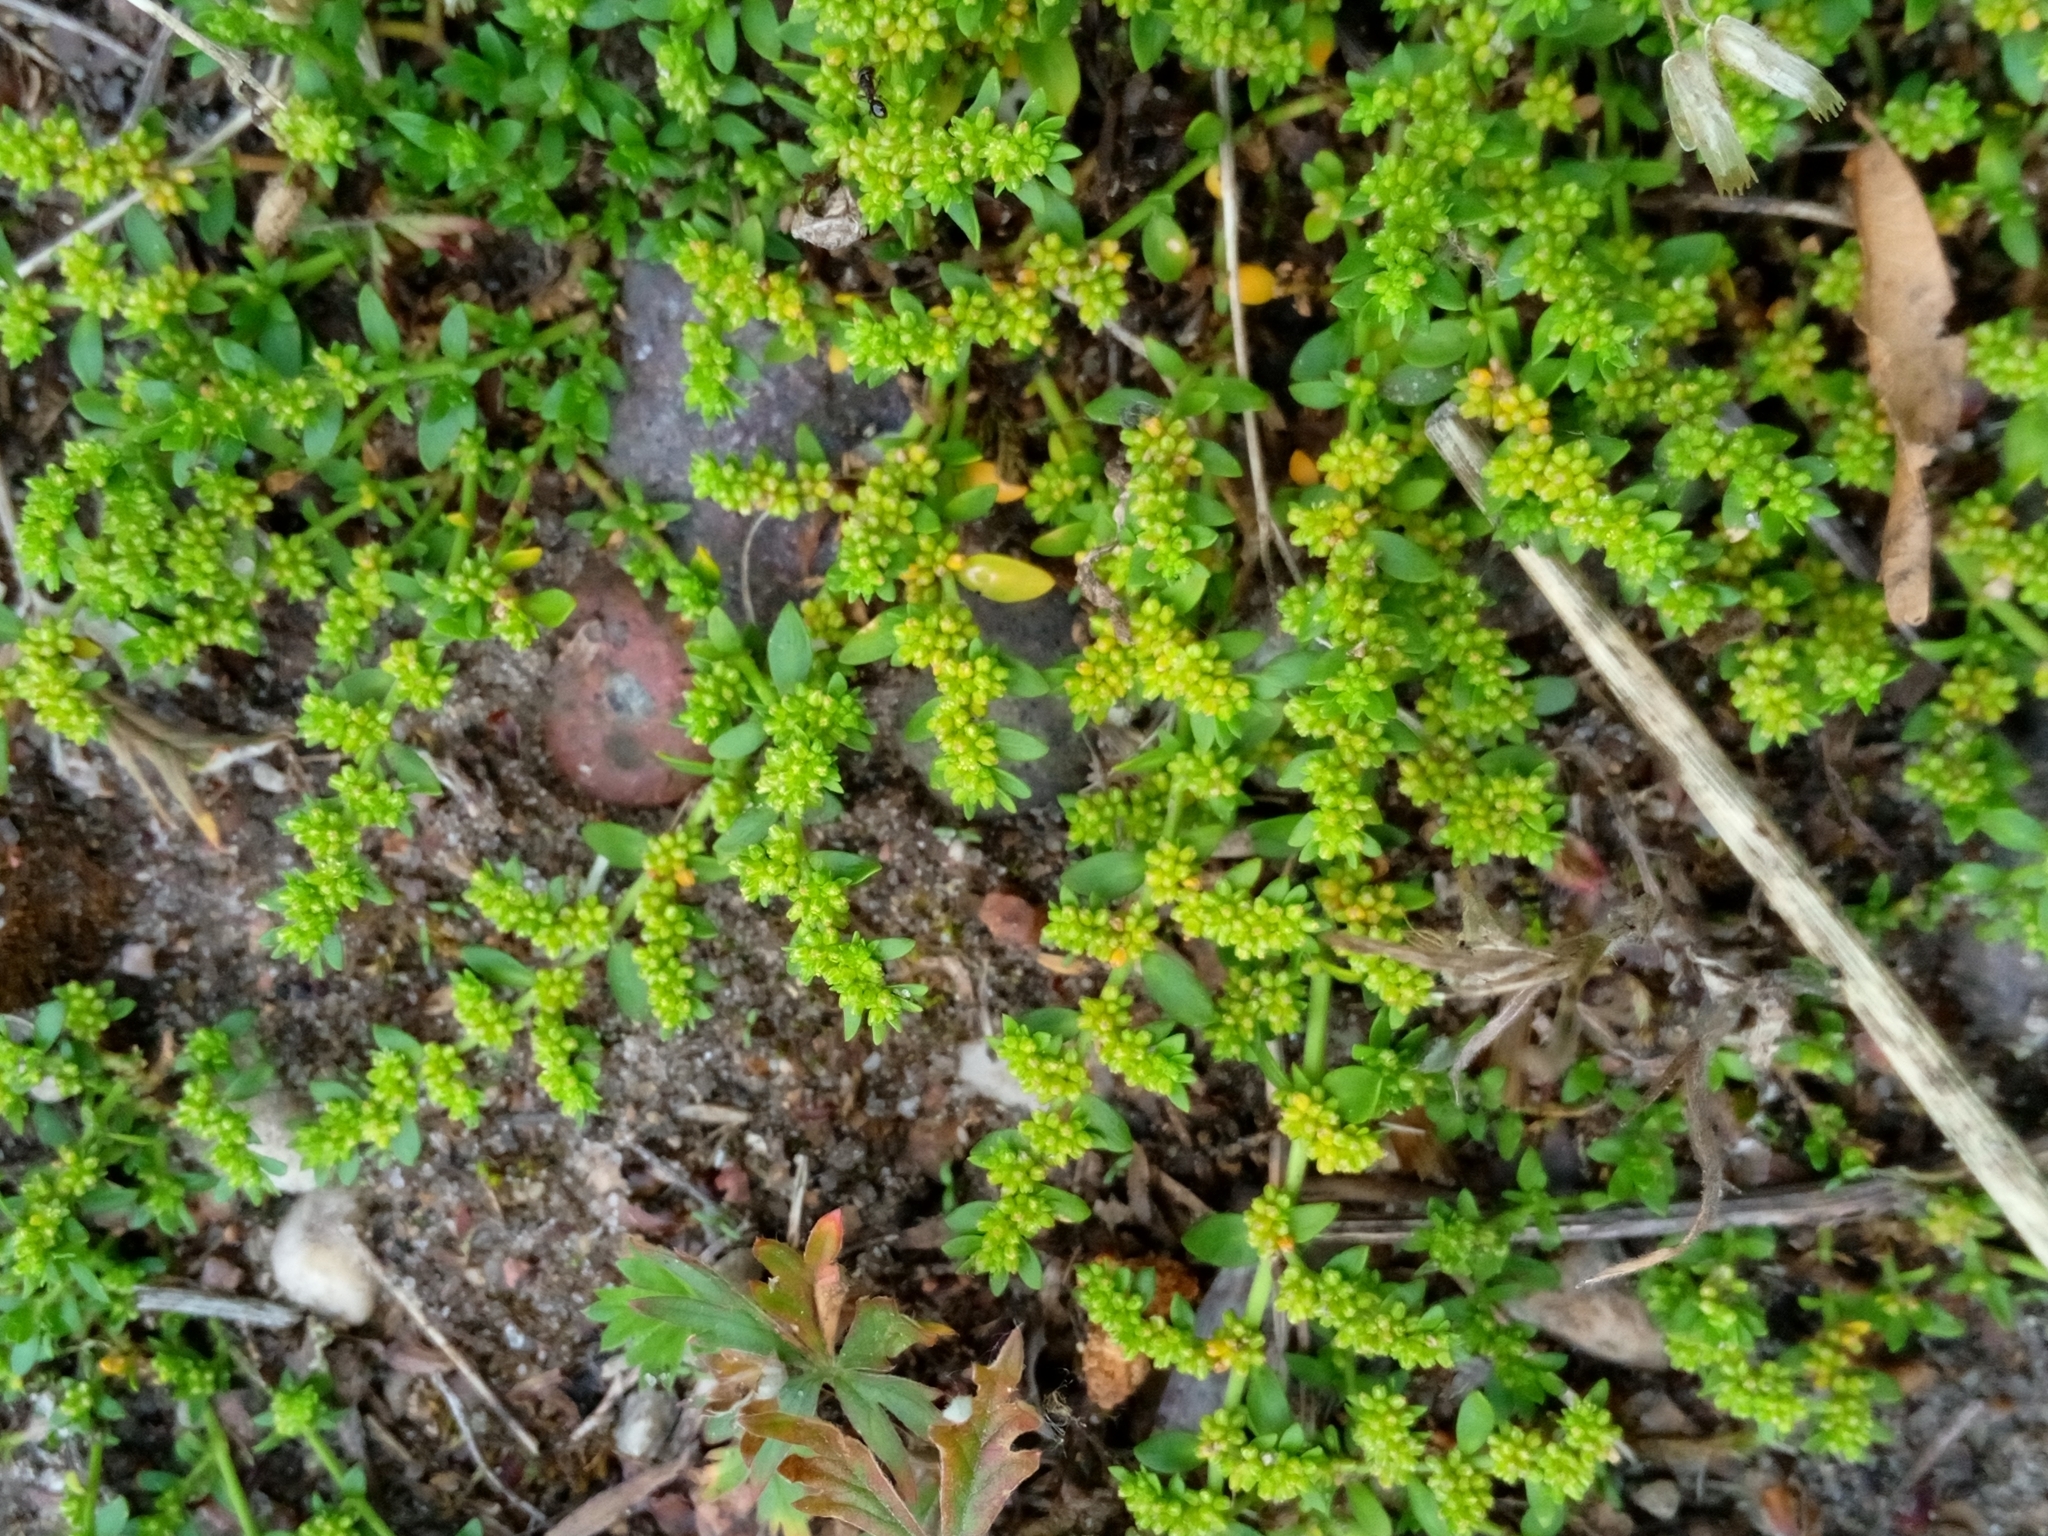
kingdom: Plantae
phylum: Tracheophyta
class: Magnoliopsida
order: Caryophyllales
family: Caryophyllaceae
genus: Herniaria
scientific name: Herniaria glabra
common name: Smooth rupturewort
